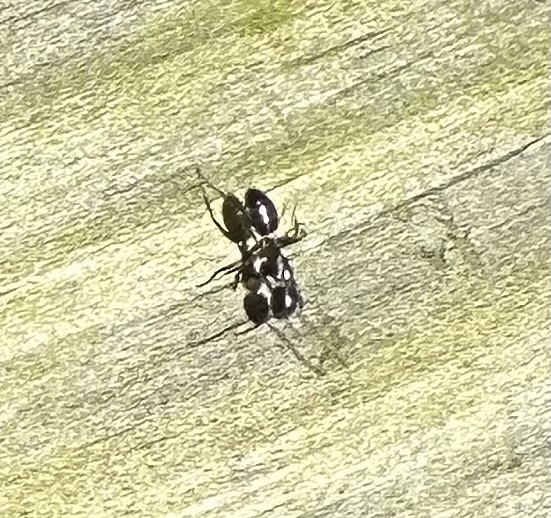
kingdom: Animalia
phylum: Arthropoda
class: Insecta
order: Hymenoptera
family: Formicidae
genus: Camponotus
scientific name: Camponotus nearcticus
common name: Smaller carpenter ant
